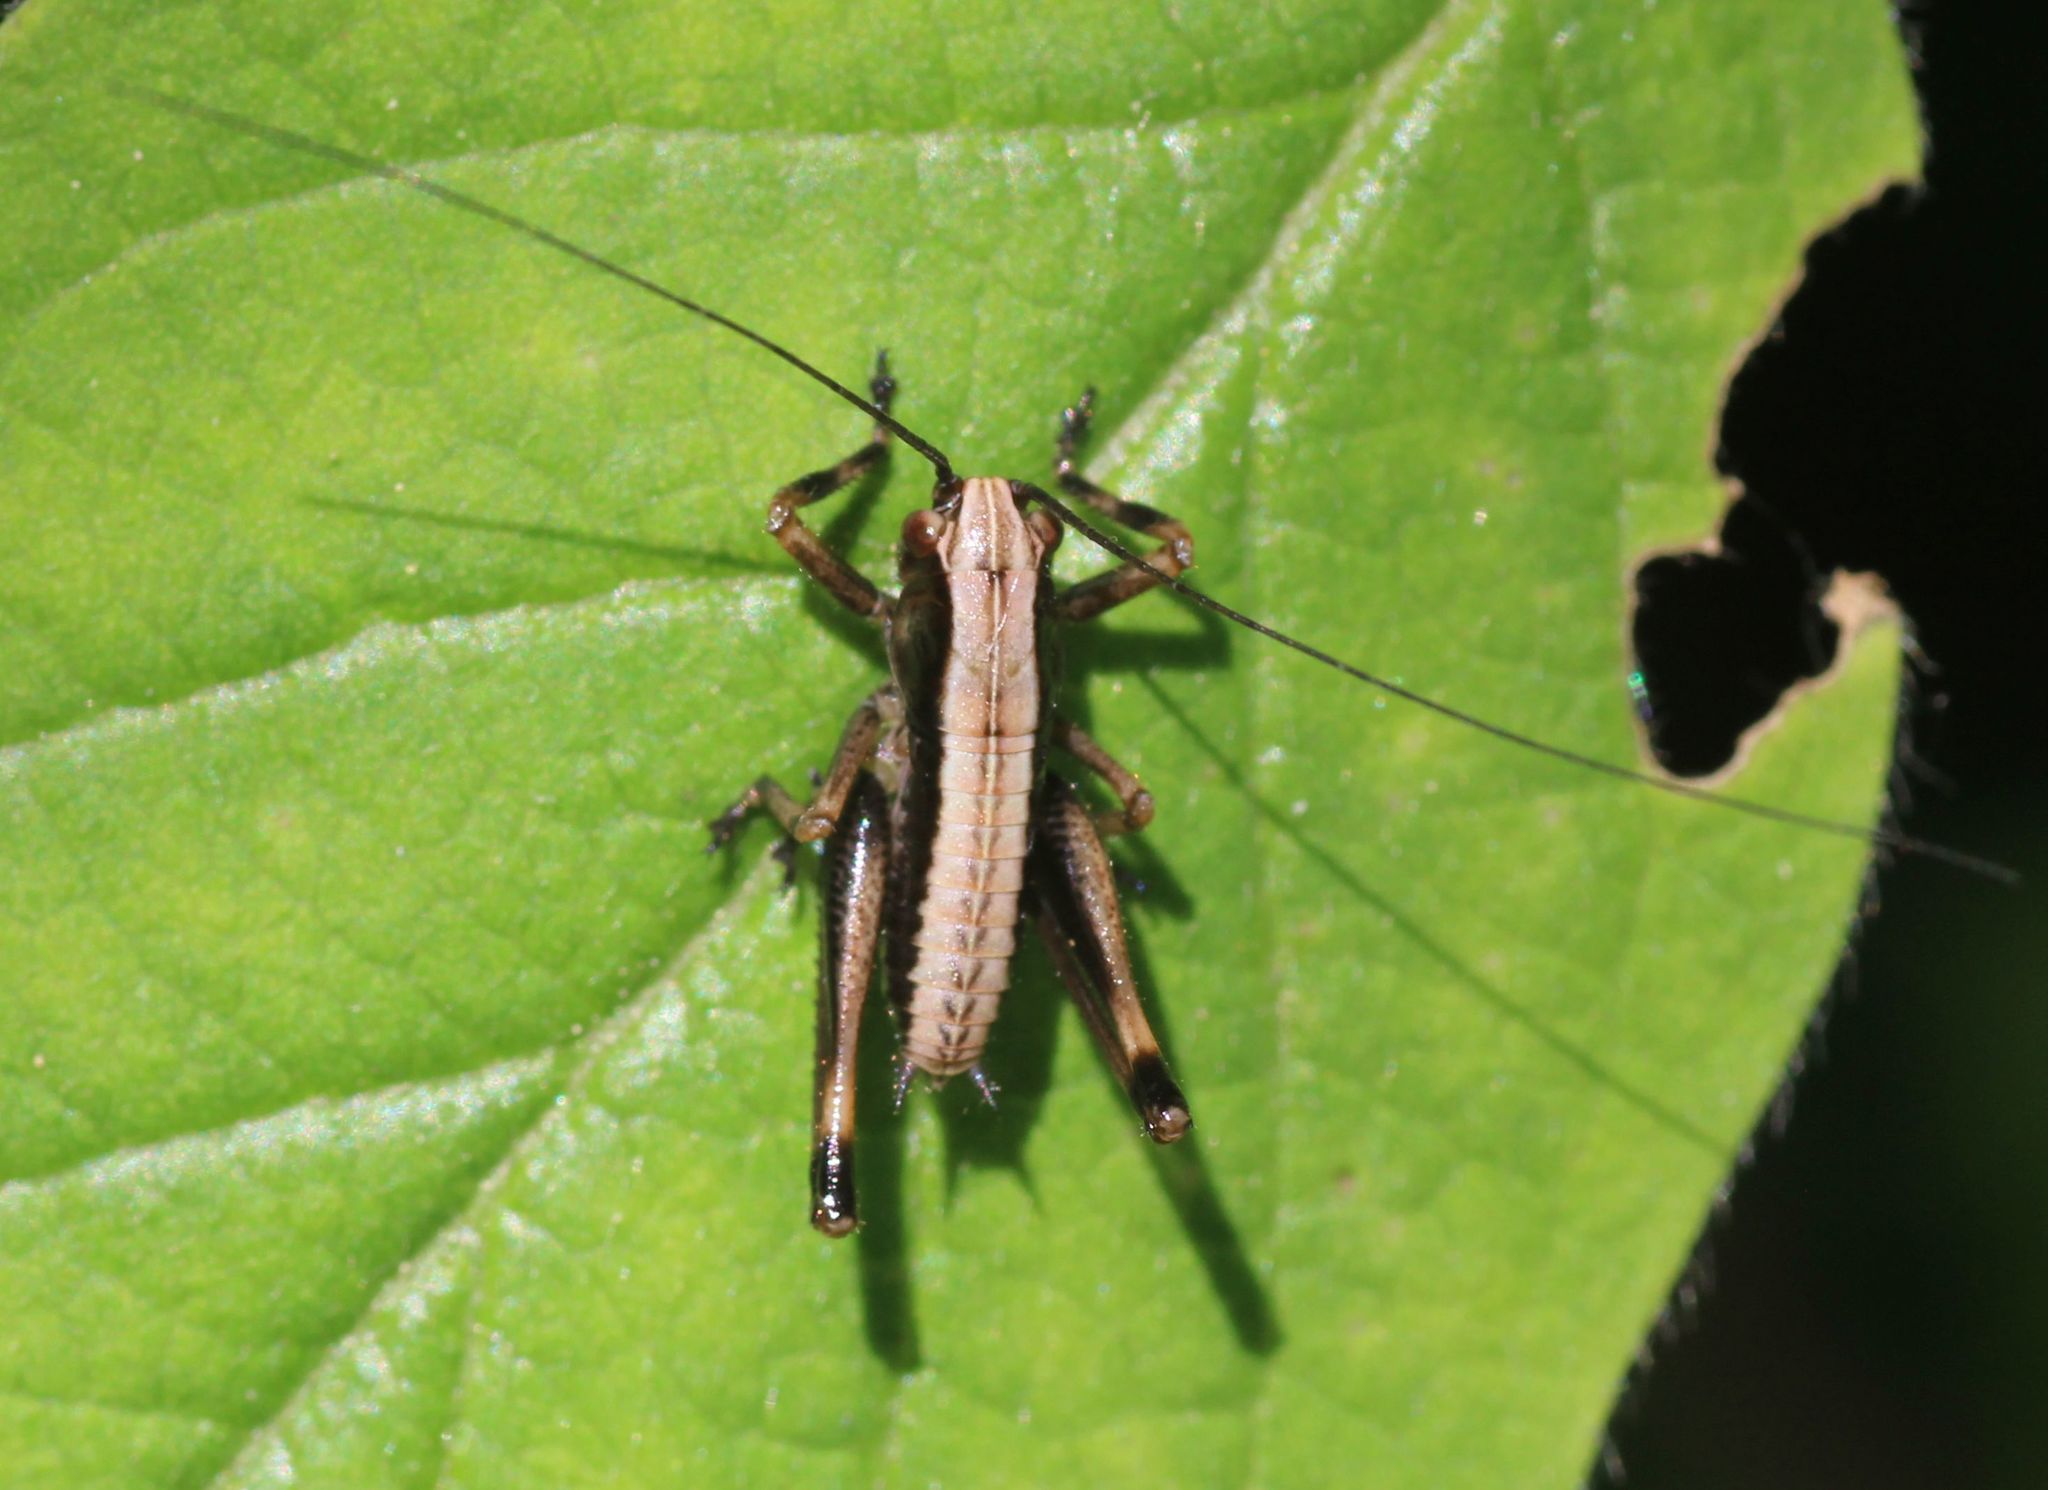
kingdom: Animalia
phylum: Arthropoda
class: Insecta
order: Orthoptera
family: Tettigoniidae
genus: Pholidoptera
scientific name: Pholidoptera griseoaptera
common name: Dark bush-cricket
